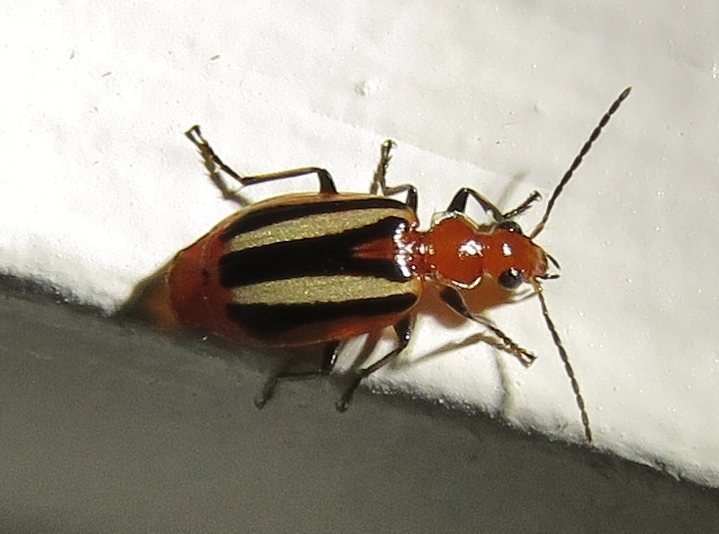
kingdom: Animalia
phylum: Arthropoda
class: Insecta
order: Coleoptera
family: Carabidae
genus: Lebia
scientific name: Lebia vittata
